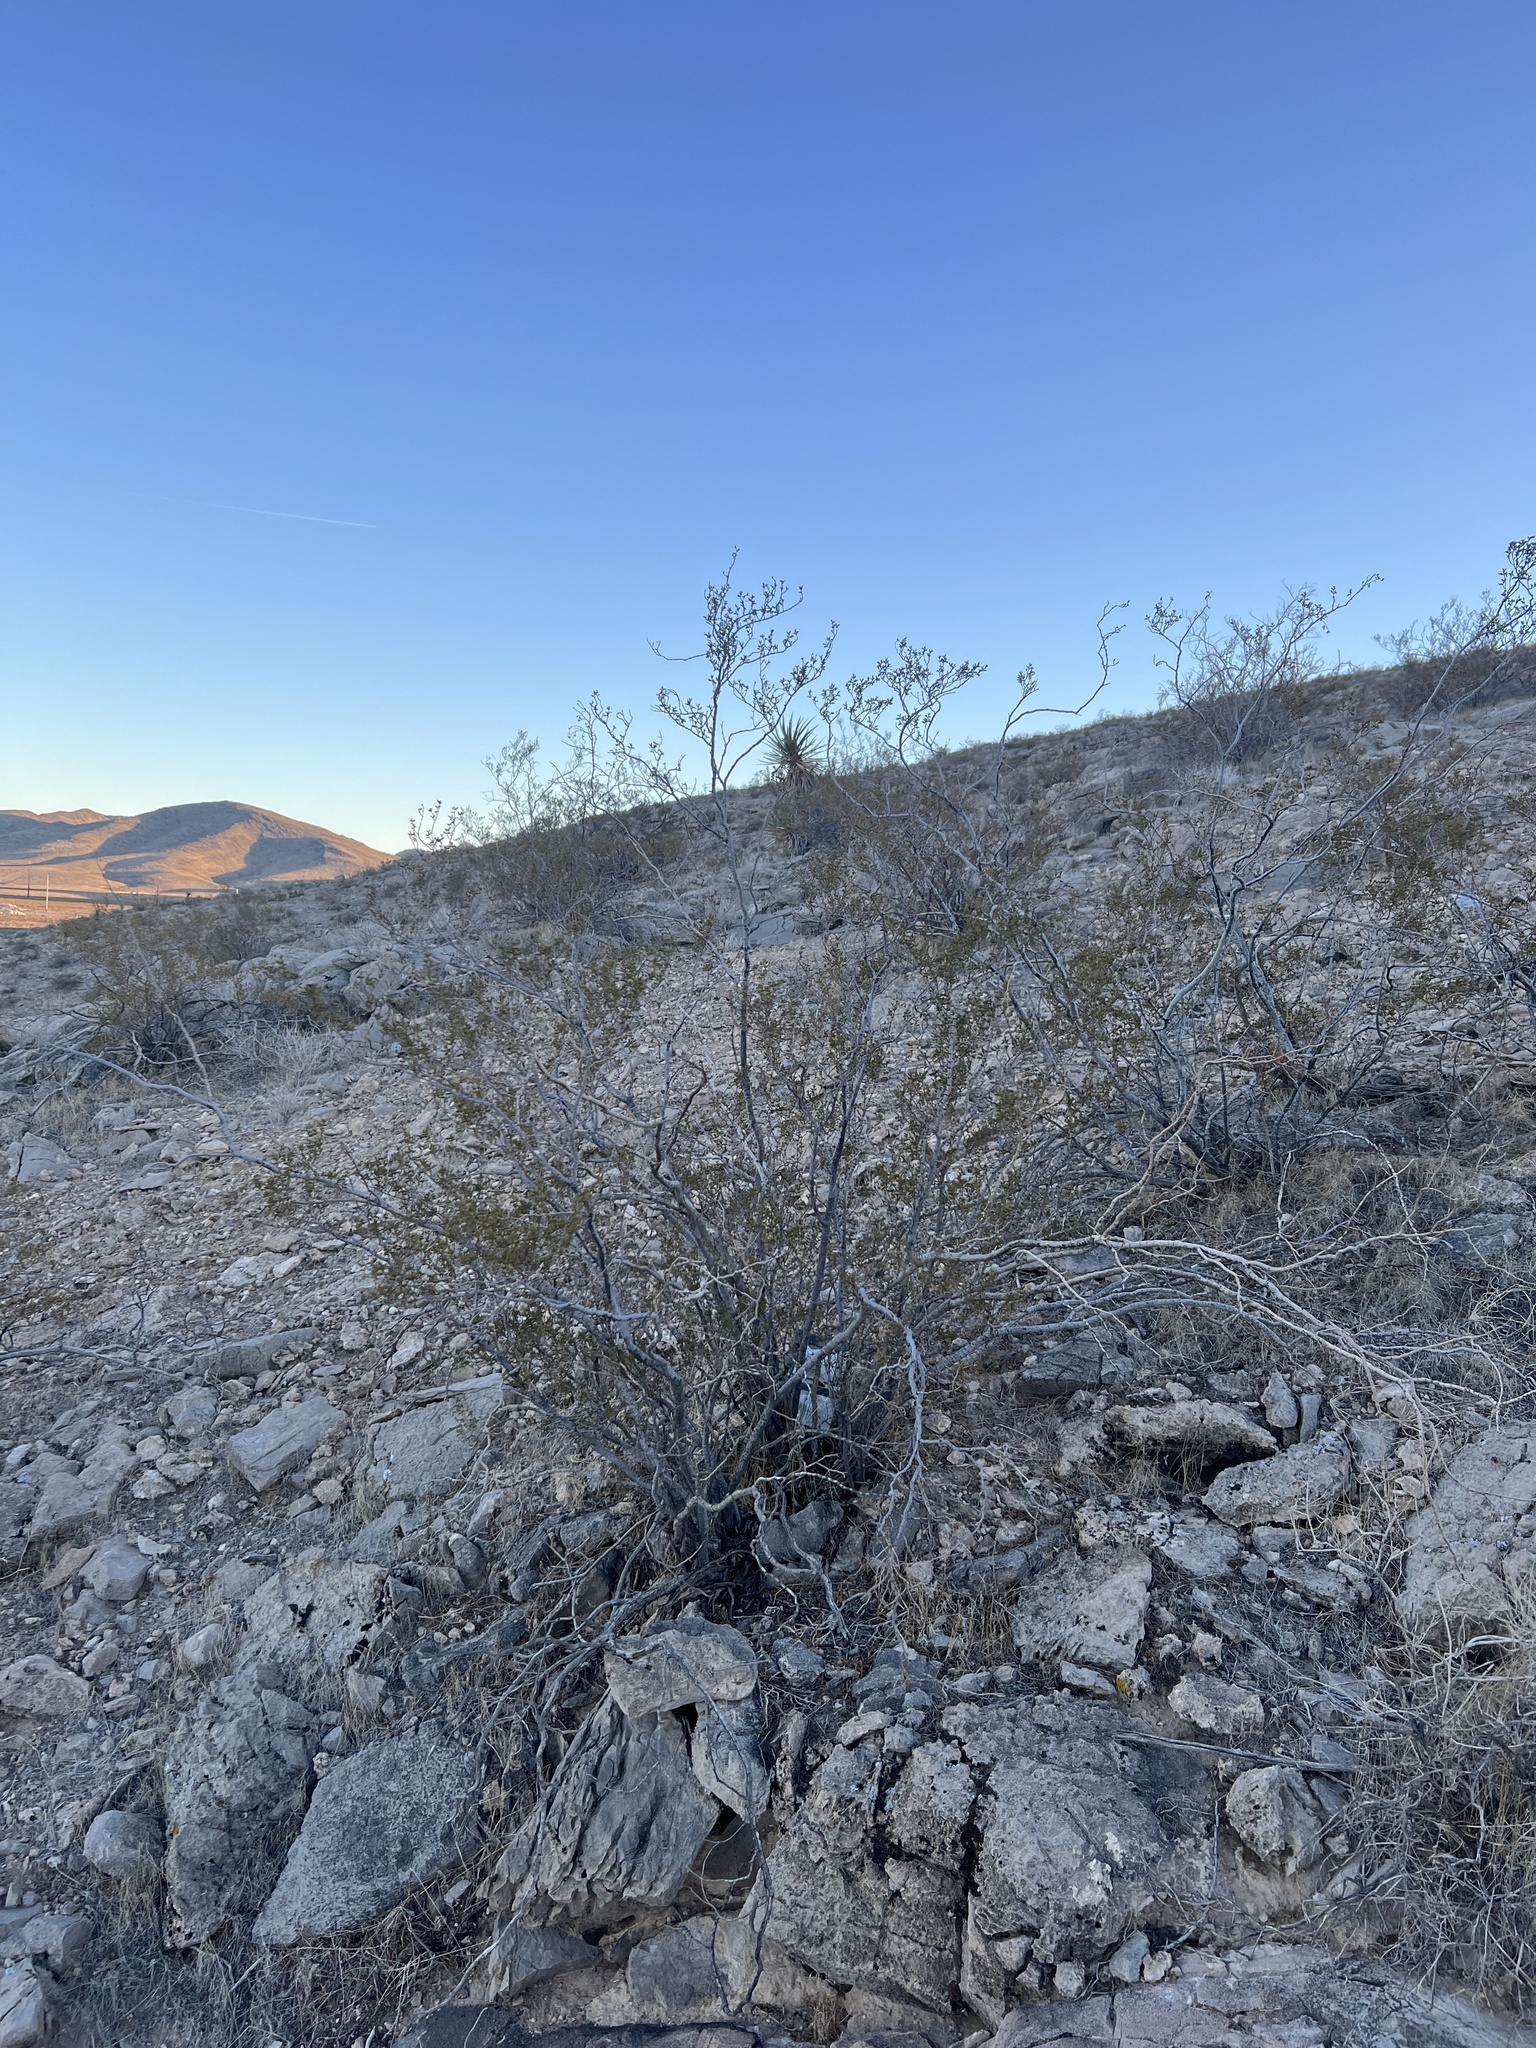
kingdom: Plantae
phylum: Tracheophyta
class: Magnoliopsida
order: Zygophyllales
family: Zygophyllaceae
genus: Larrea
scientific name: Larrea tridentata
